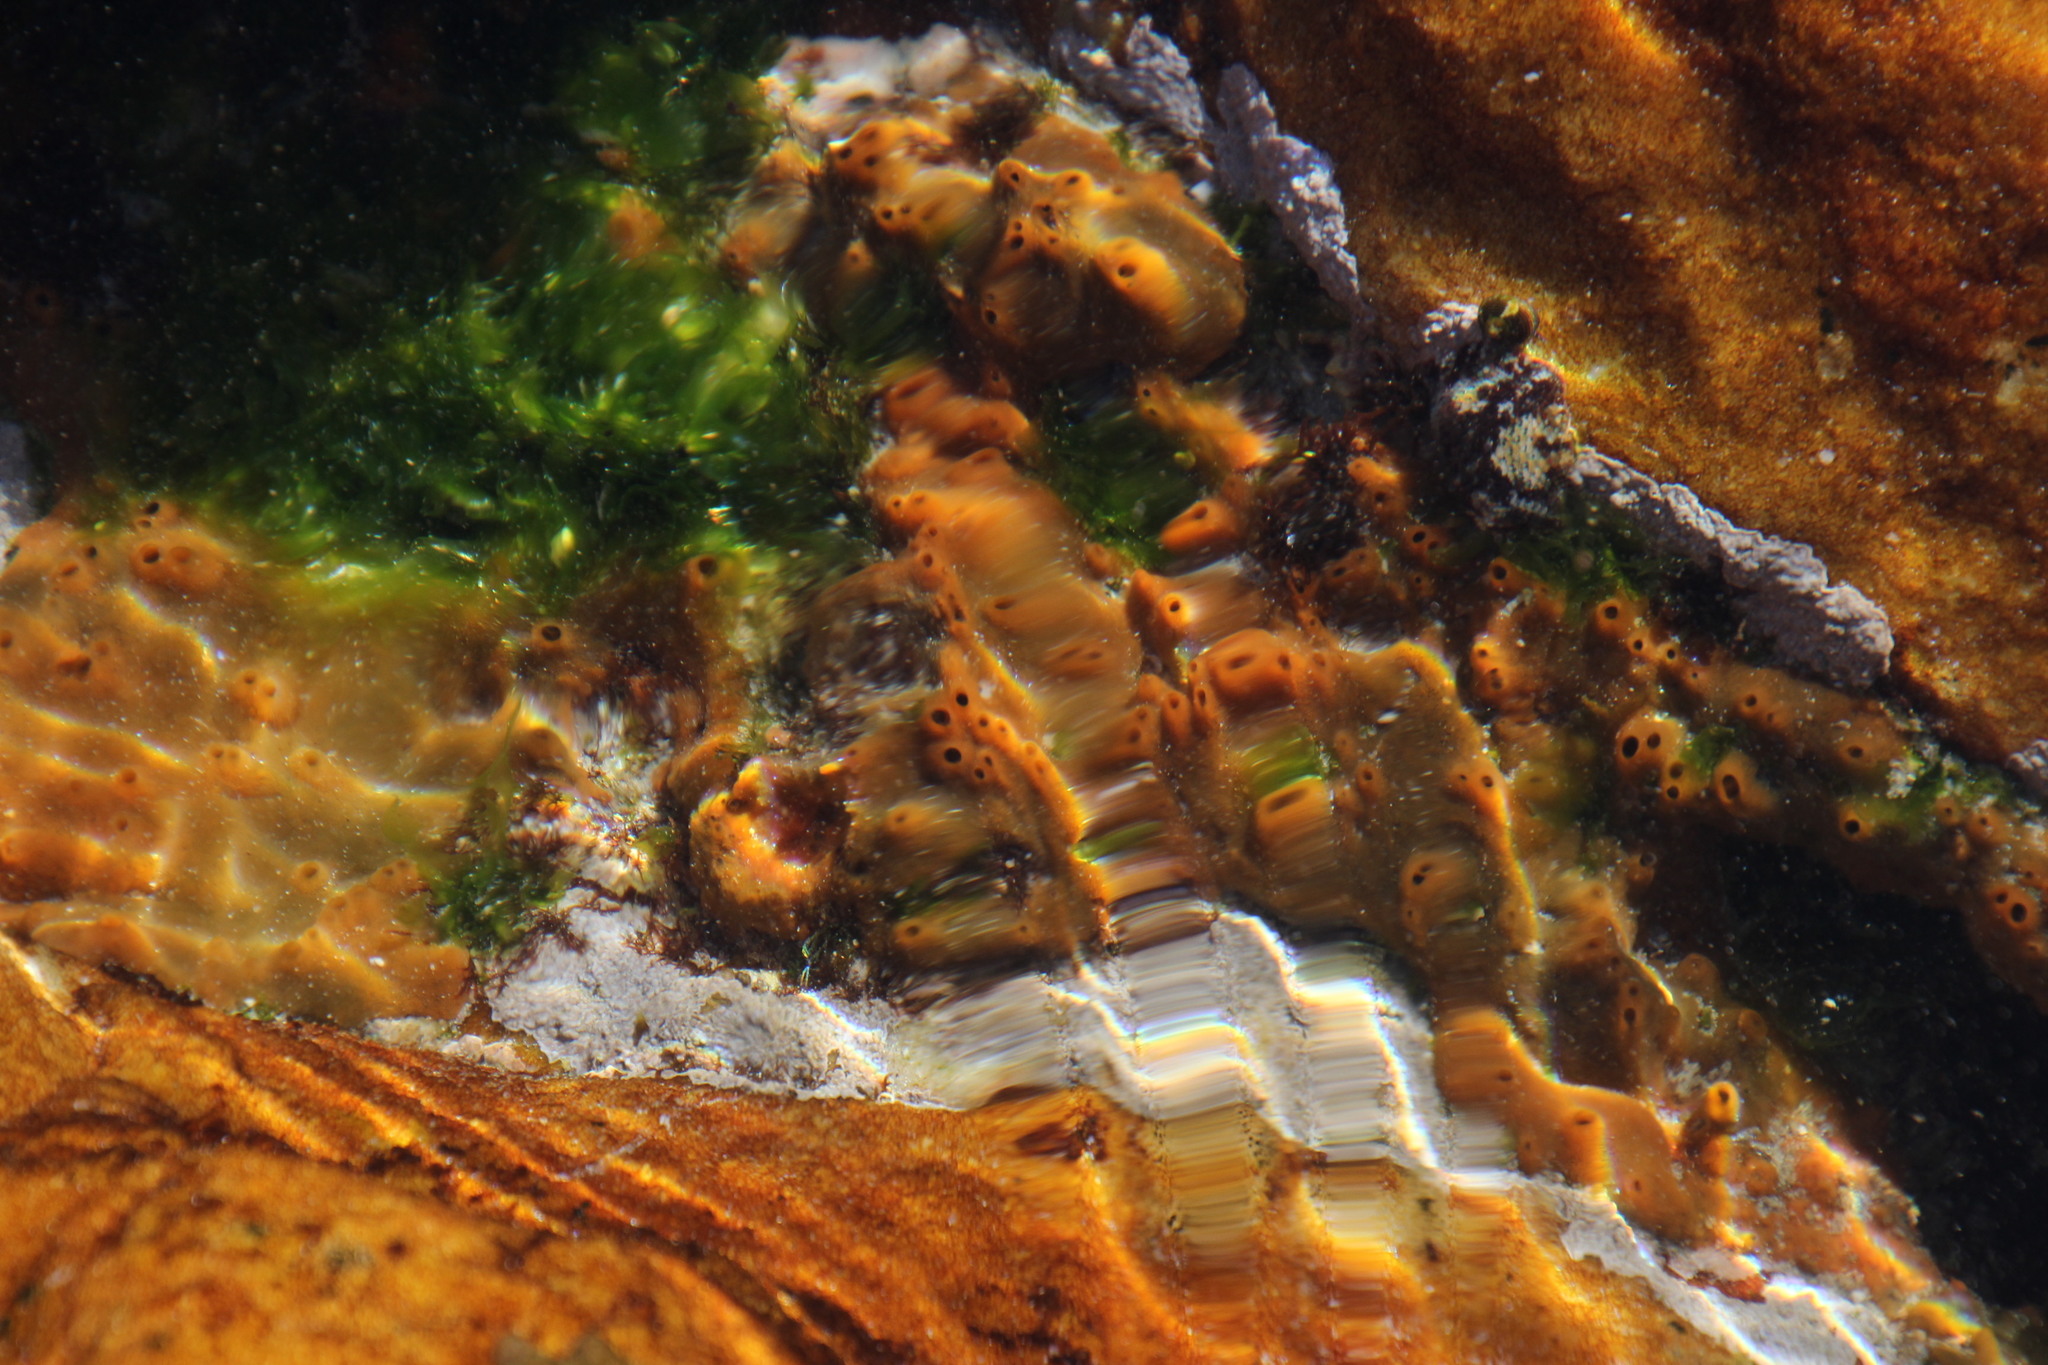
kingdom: Animalia
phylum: Porifera
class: Demospongiae
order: Suberitida
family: Halichondriidae
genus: Hymeniacidon
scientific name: Hymeniacidon perlevis
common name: Crumb-of-bread sponge
